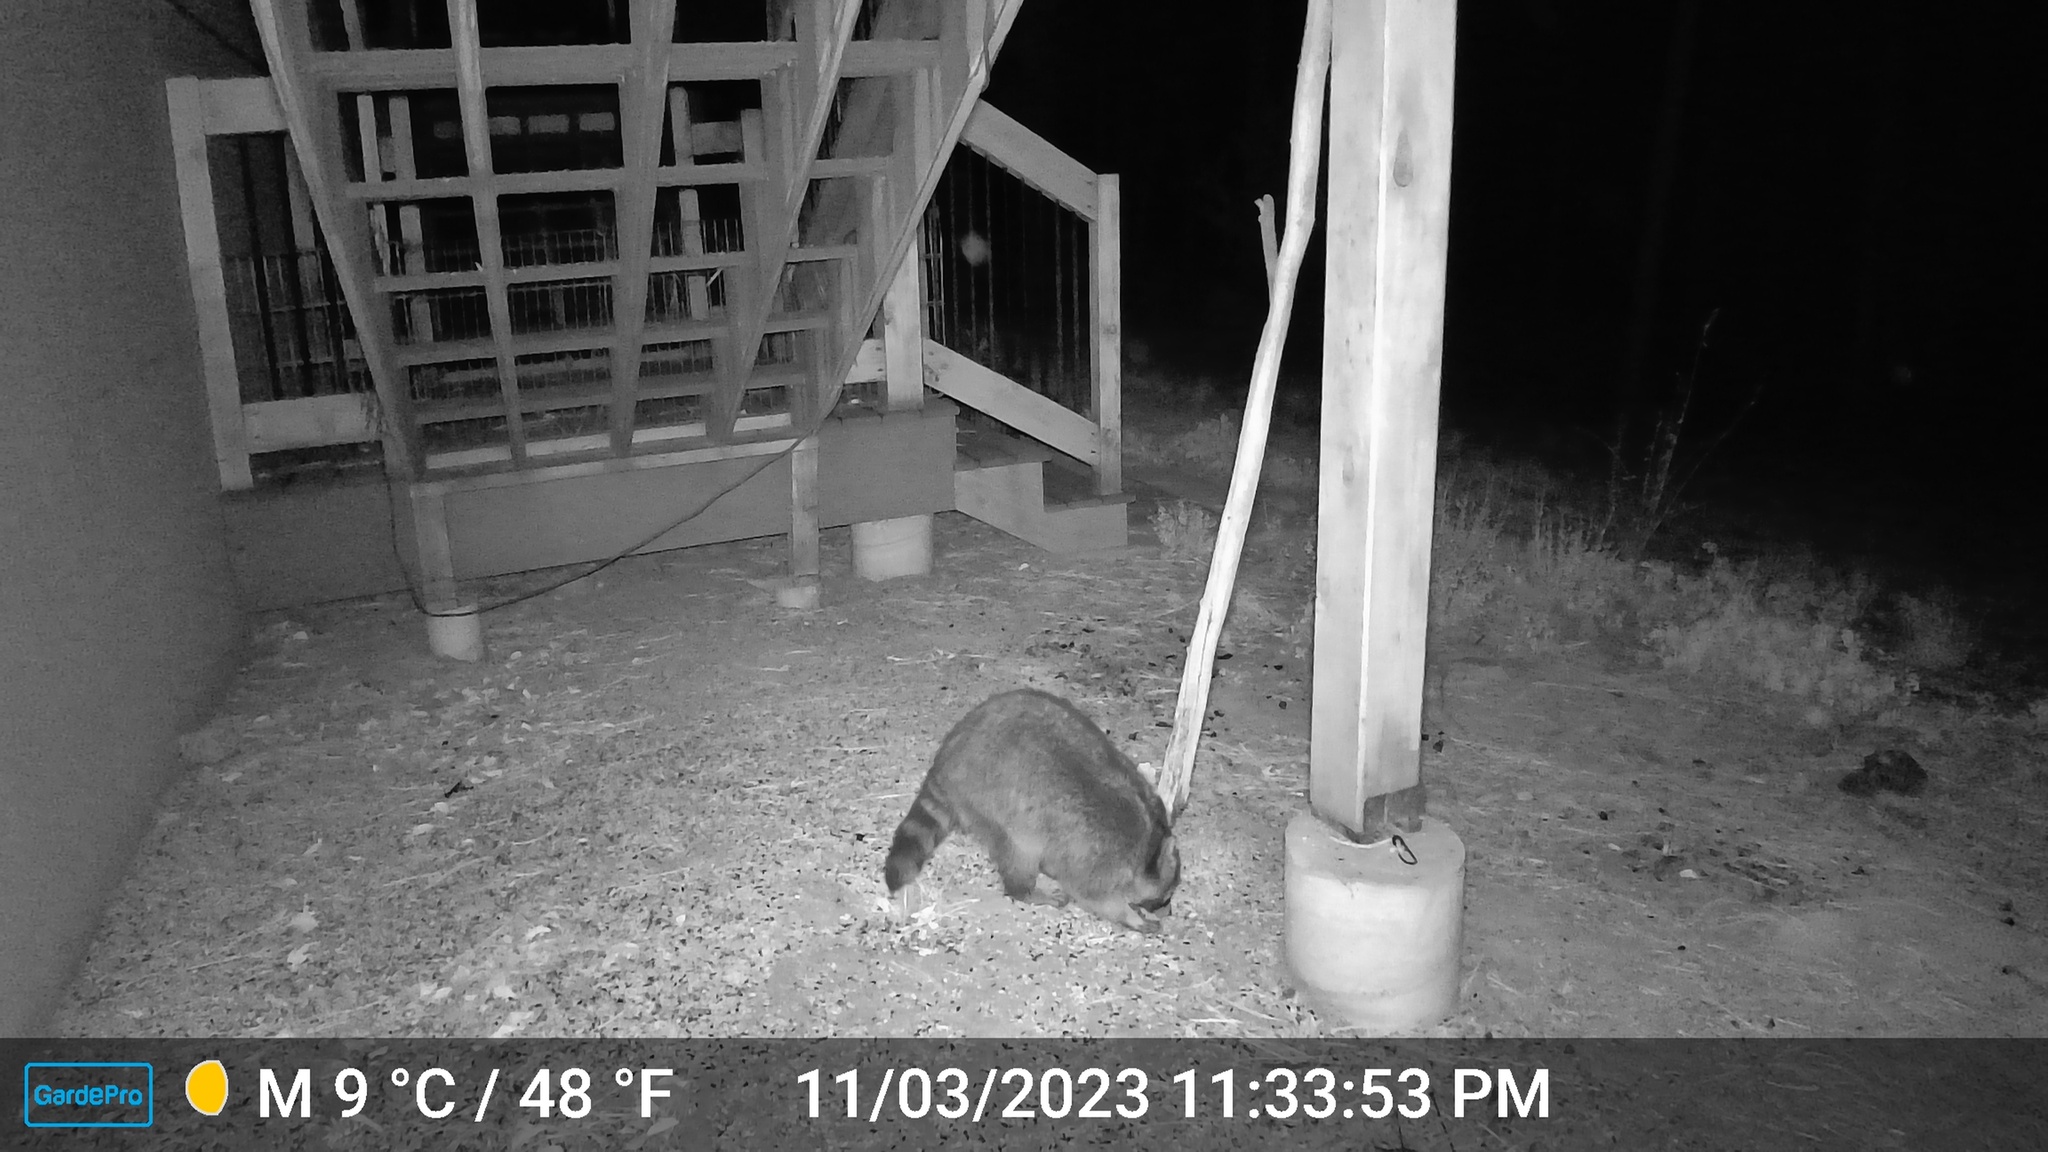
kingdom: Animalia
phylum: Chordata
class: Mammalia
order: Carnivora
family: Procyonidae
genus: Procyon
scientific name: Procyon lotor
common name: Raccoon
